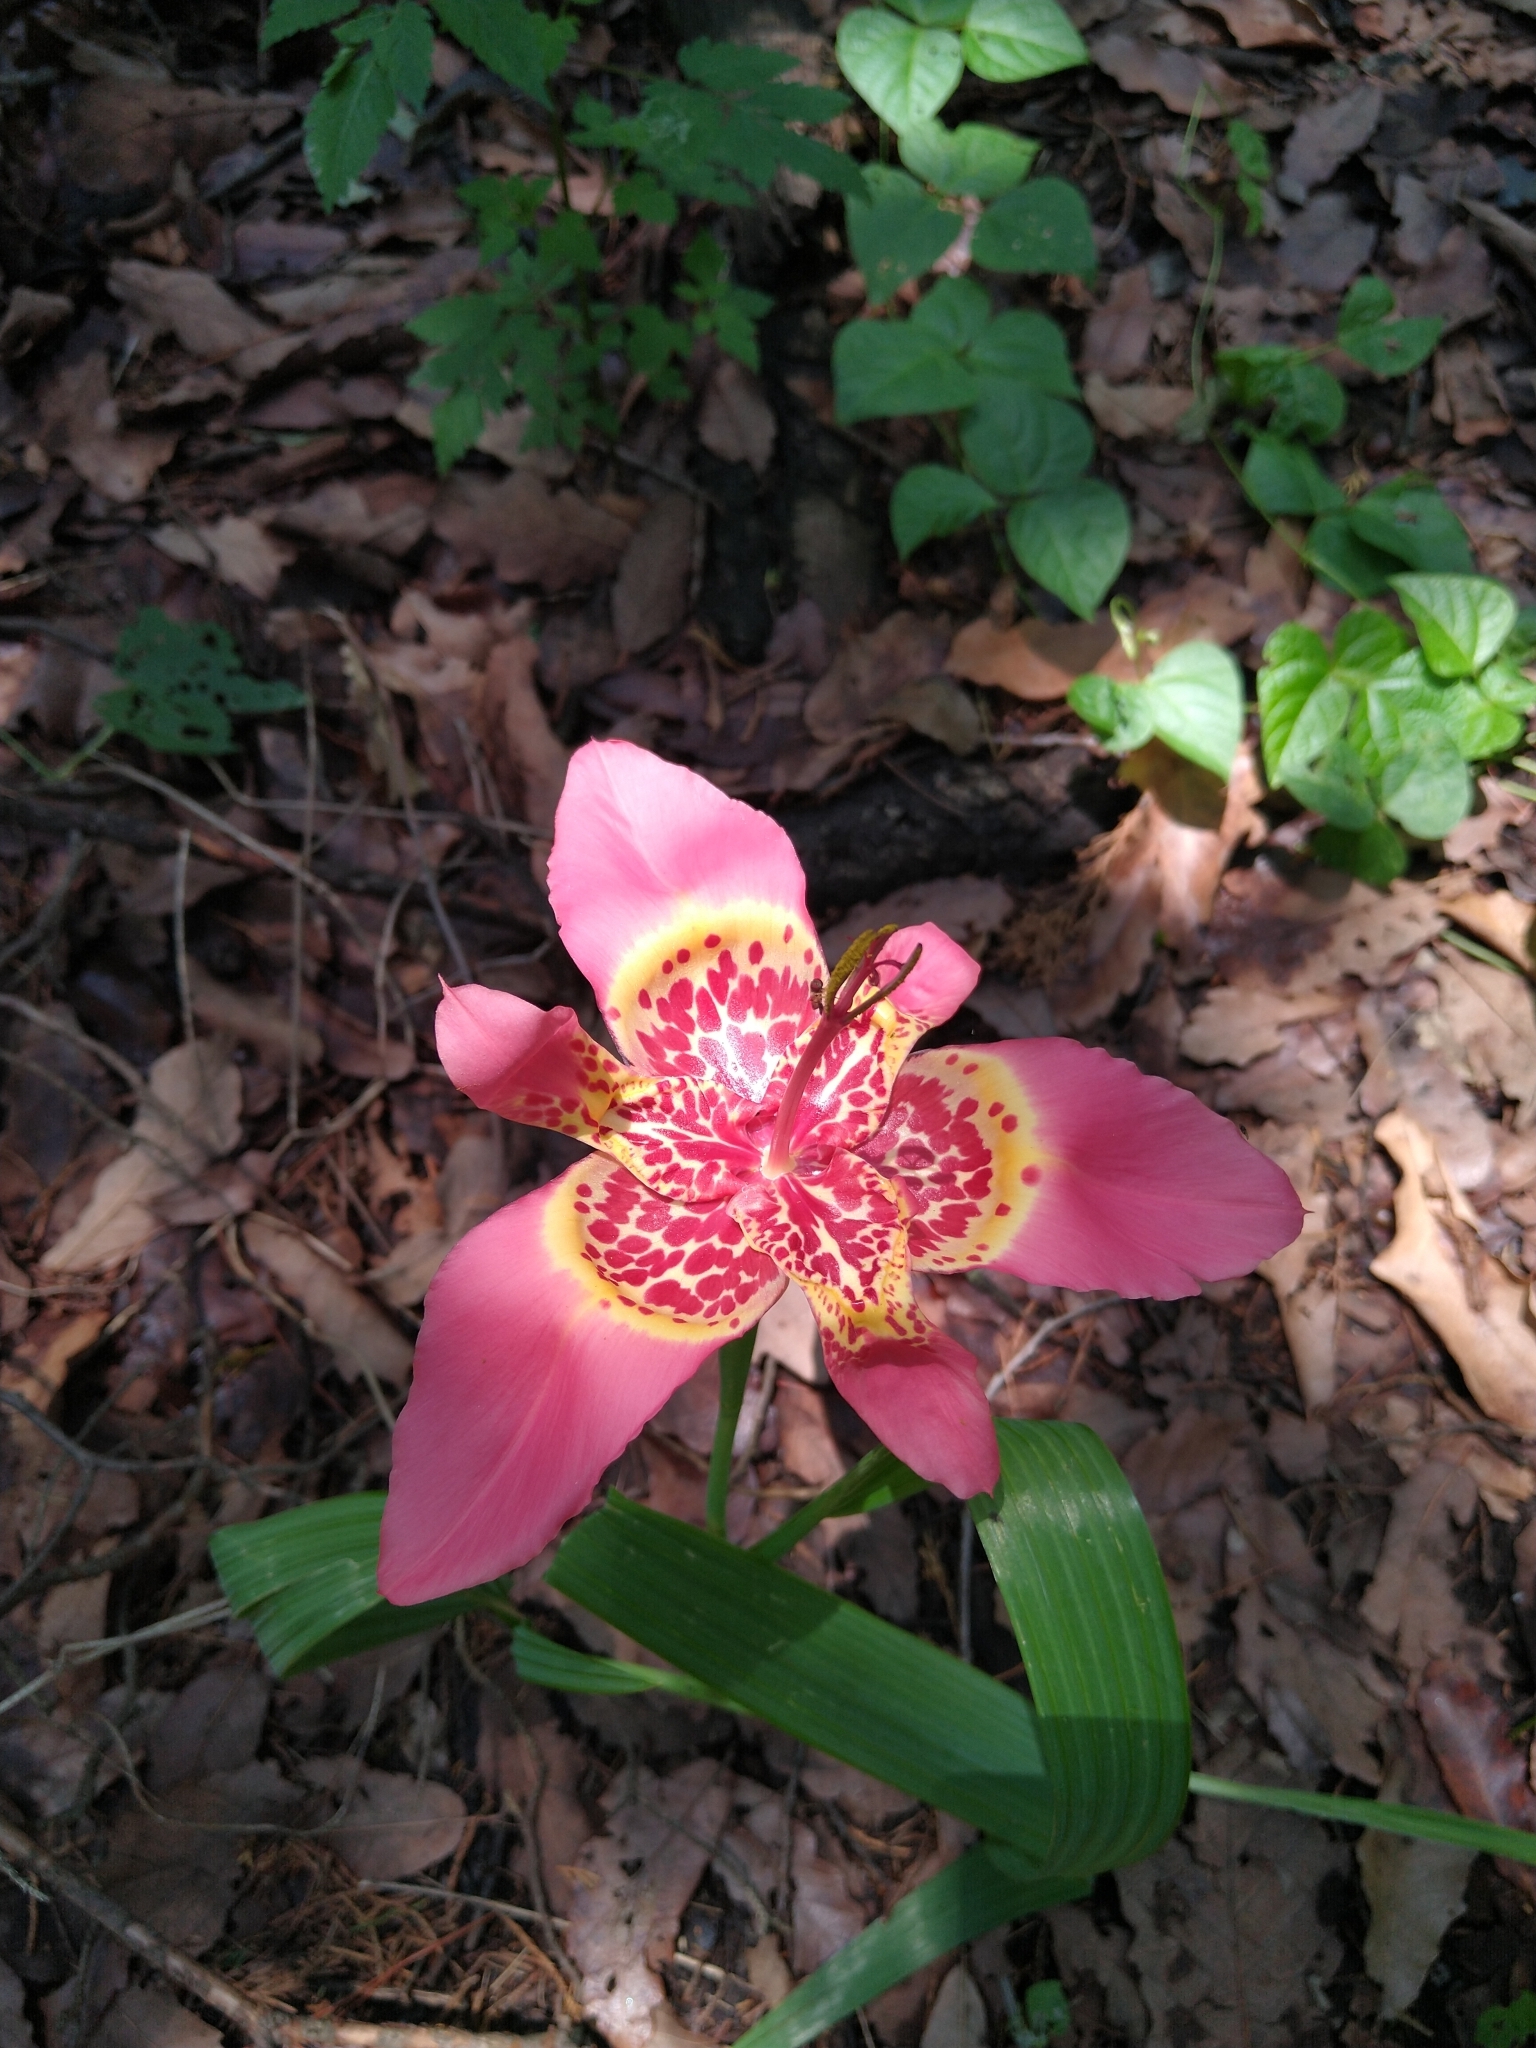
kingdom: Plantae
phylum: Tracheophyta
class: Liliopsida
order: Asparagales
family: Iridaceae
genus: Tigridia
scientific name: Tigridia pavonia
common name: Peacock-flower
